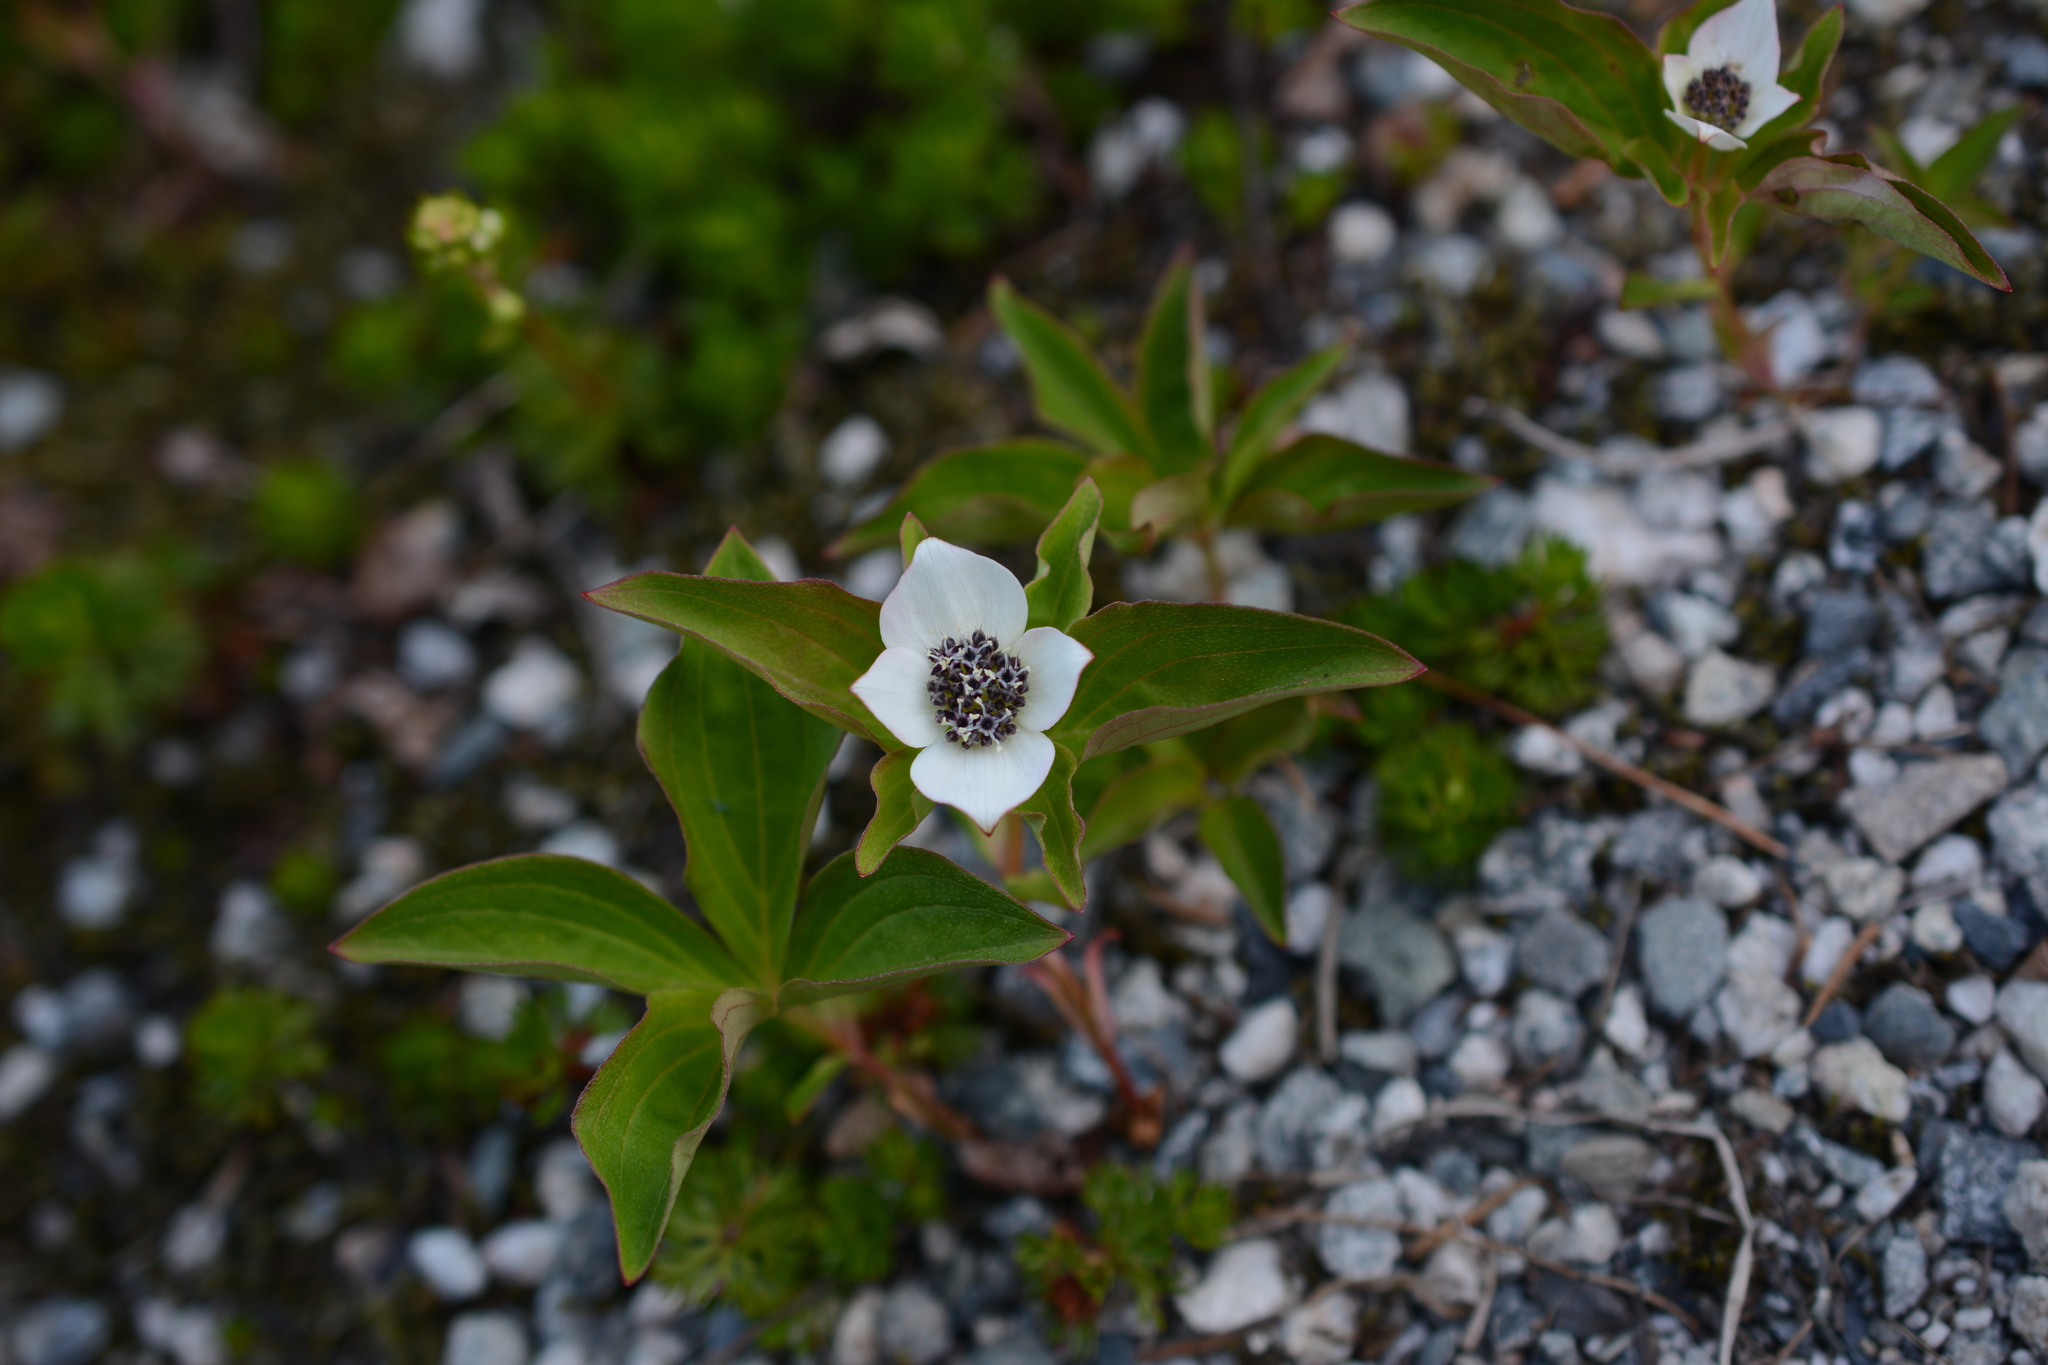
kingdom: Plantae
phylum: Tracheophyta
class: Magnoliopsida
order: Cornales
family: Cornaceae
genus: Cornus
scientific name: Cornus unalaschkensis
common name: Alaska bunchberry
